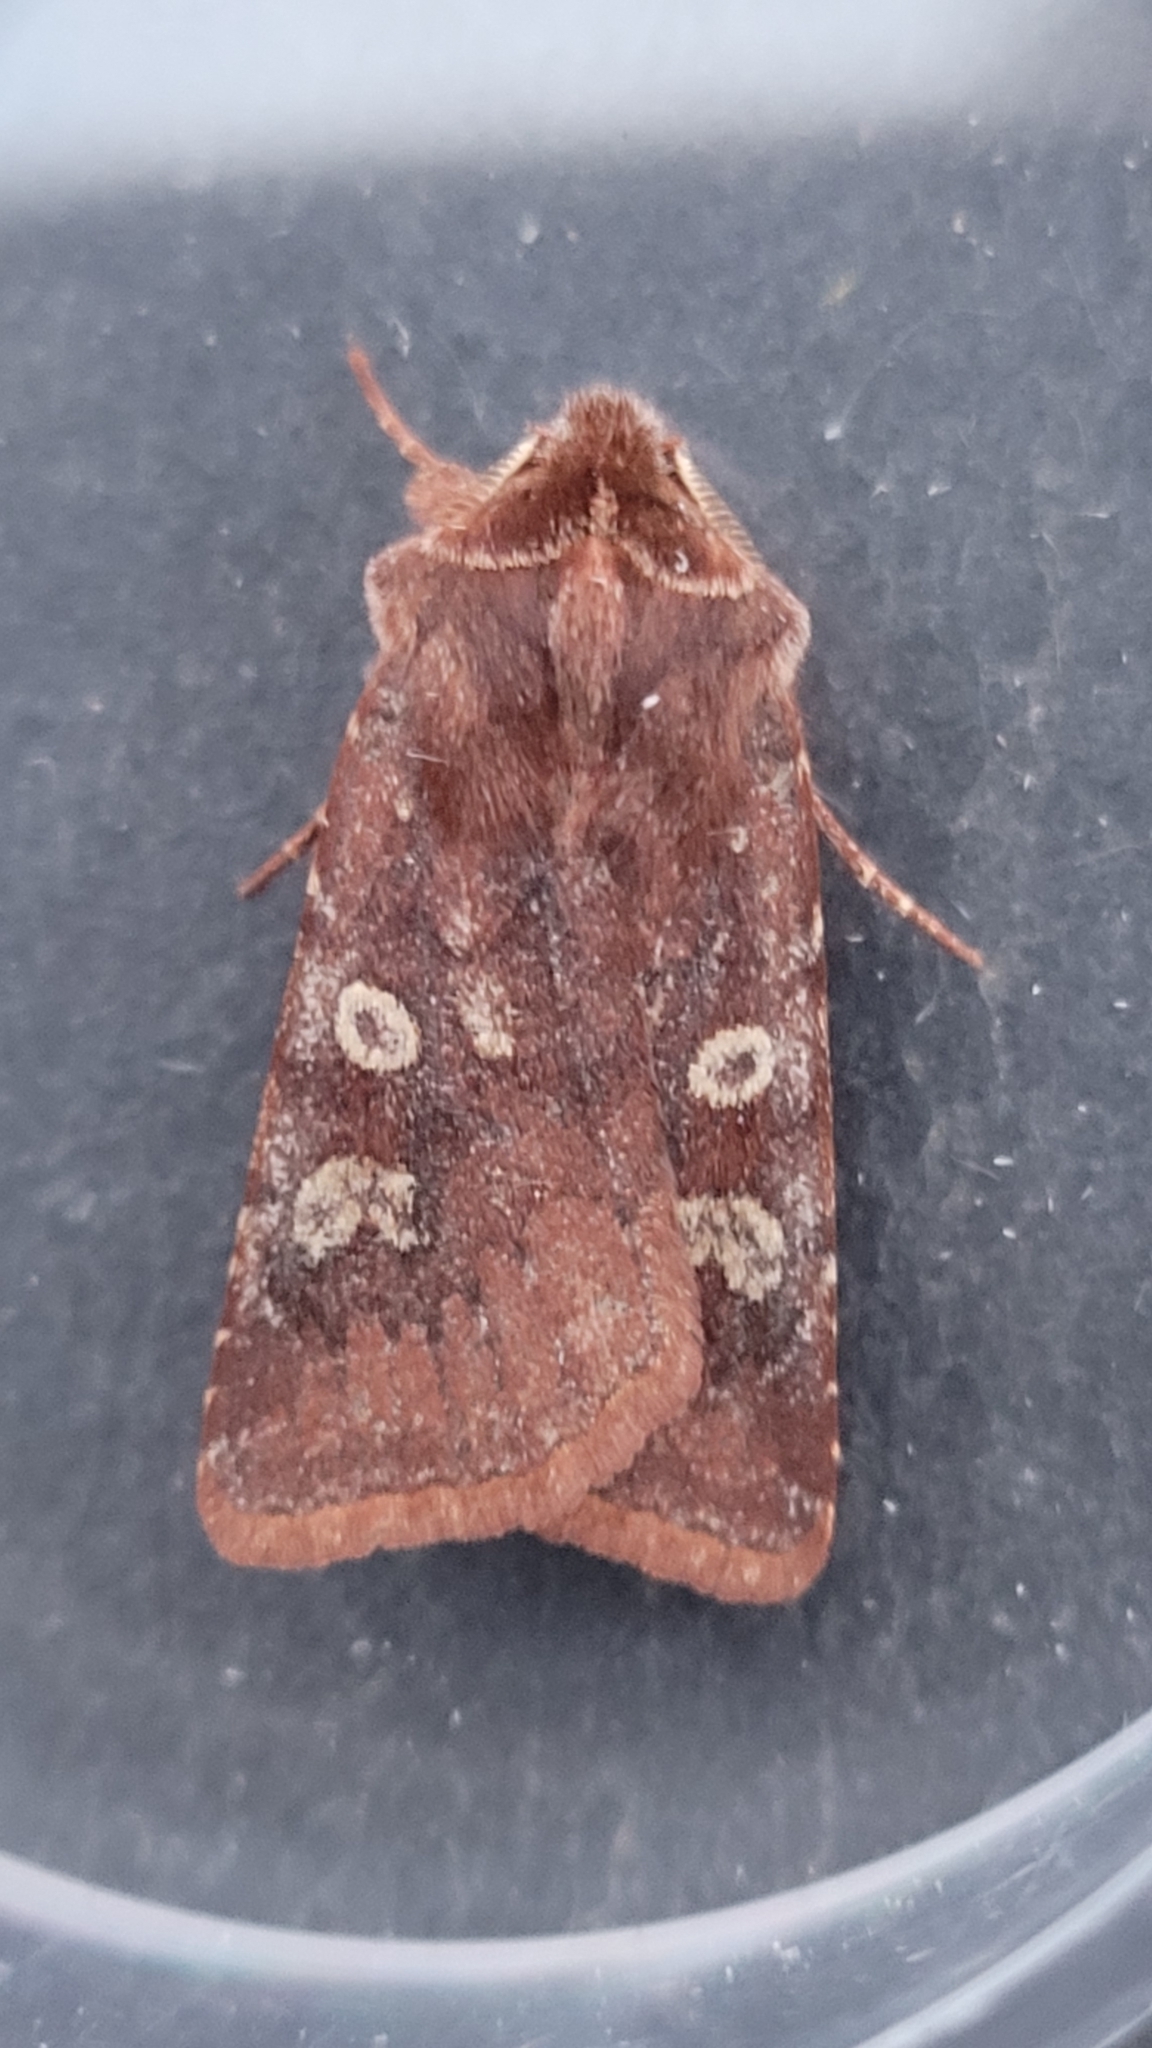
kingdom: Animalia
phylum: Arthropoda
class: Insecta
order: Lepidoptera
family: Noctuidae
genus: Cerastis
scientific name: Cerastis leucographa
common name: White-marked
